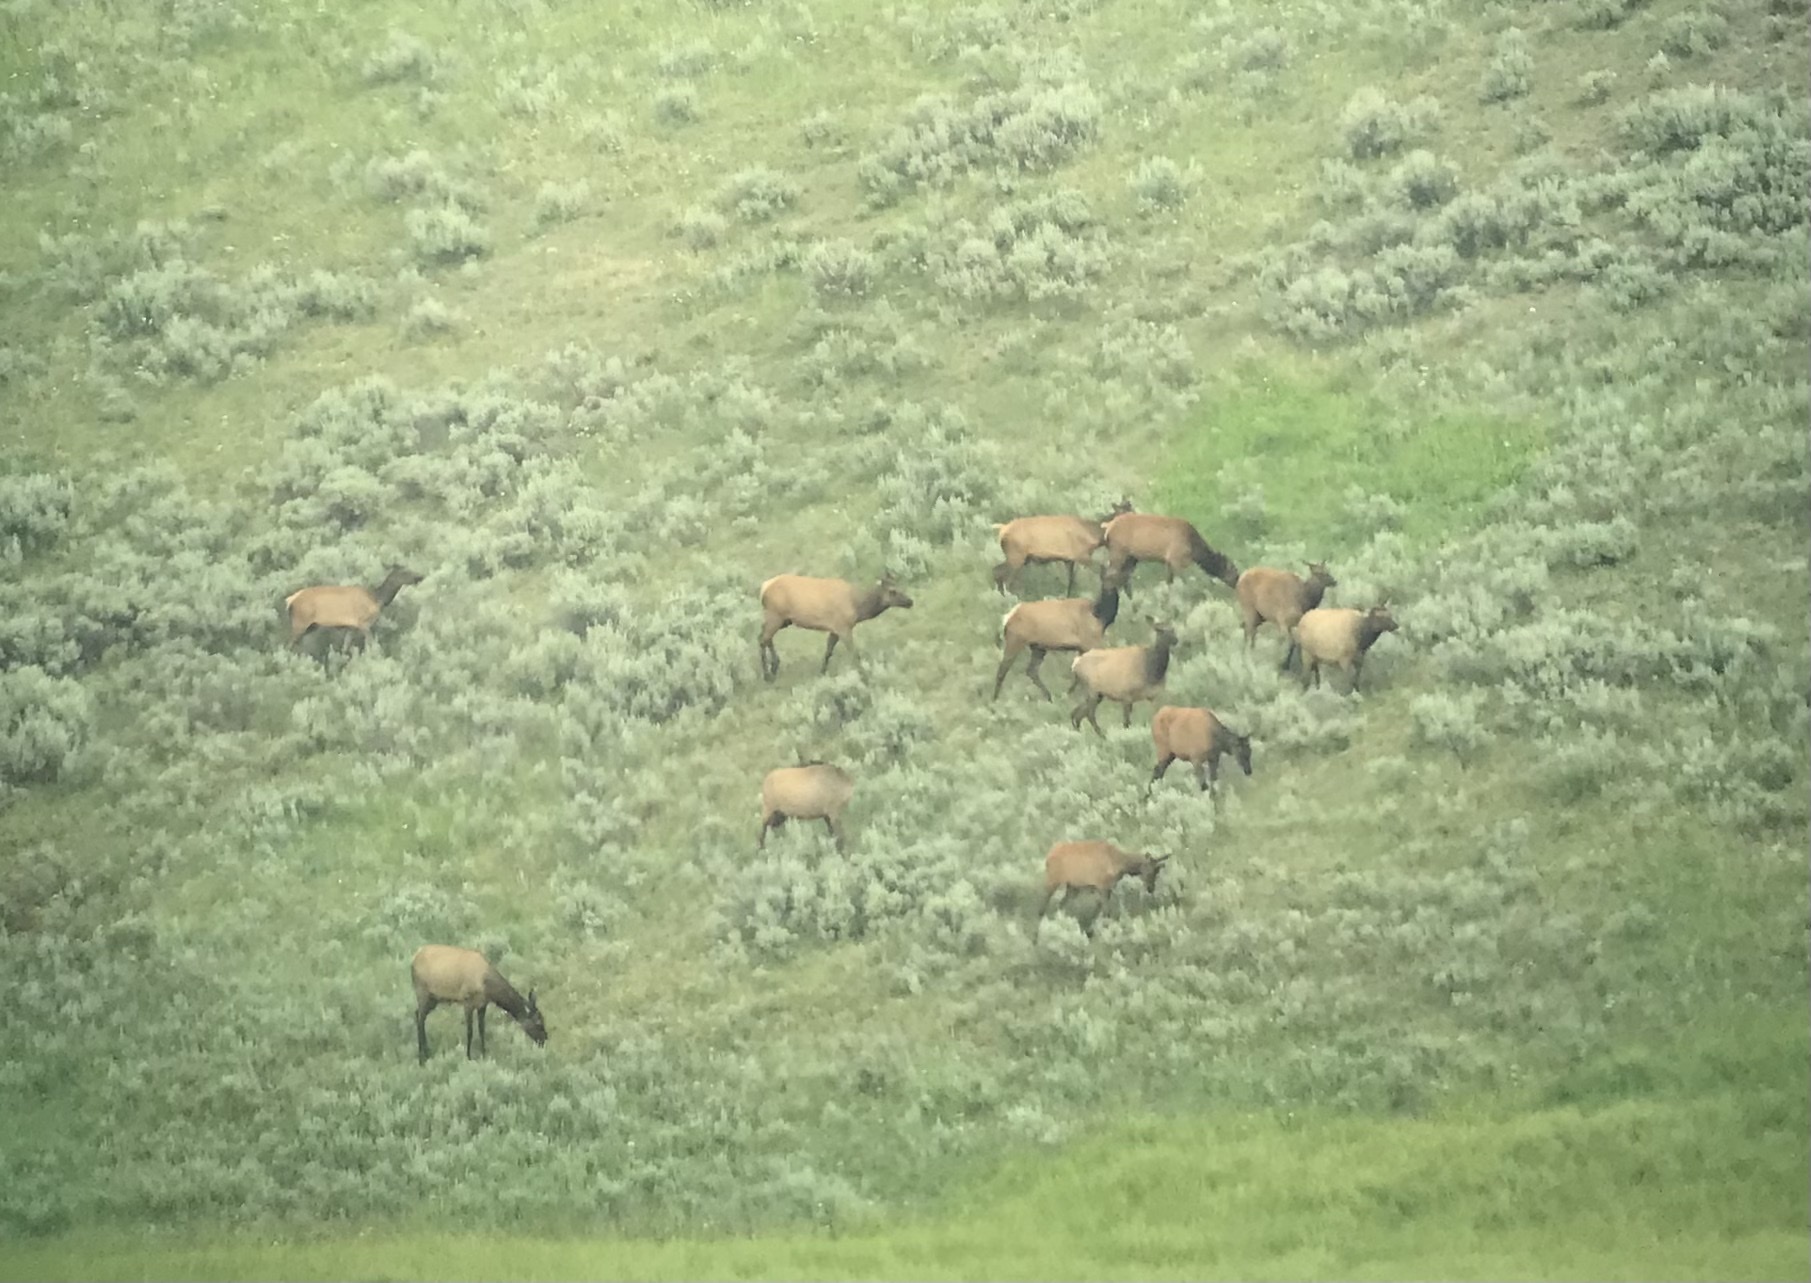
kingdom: Animalia
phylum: Chordata
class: Mammalia
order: Artiodactyla
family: Cervidae
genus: Cervus
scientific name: Cervus elaphus
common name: Red deer
